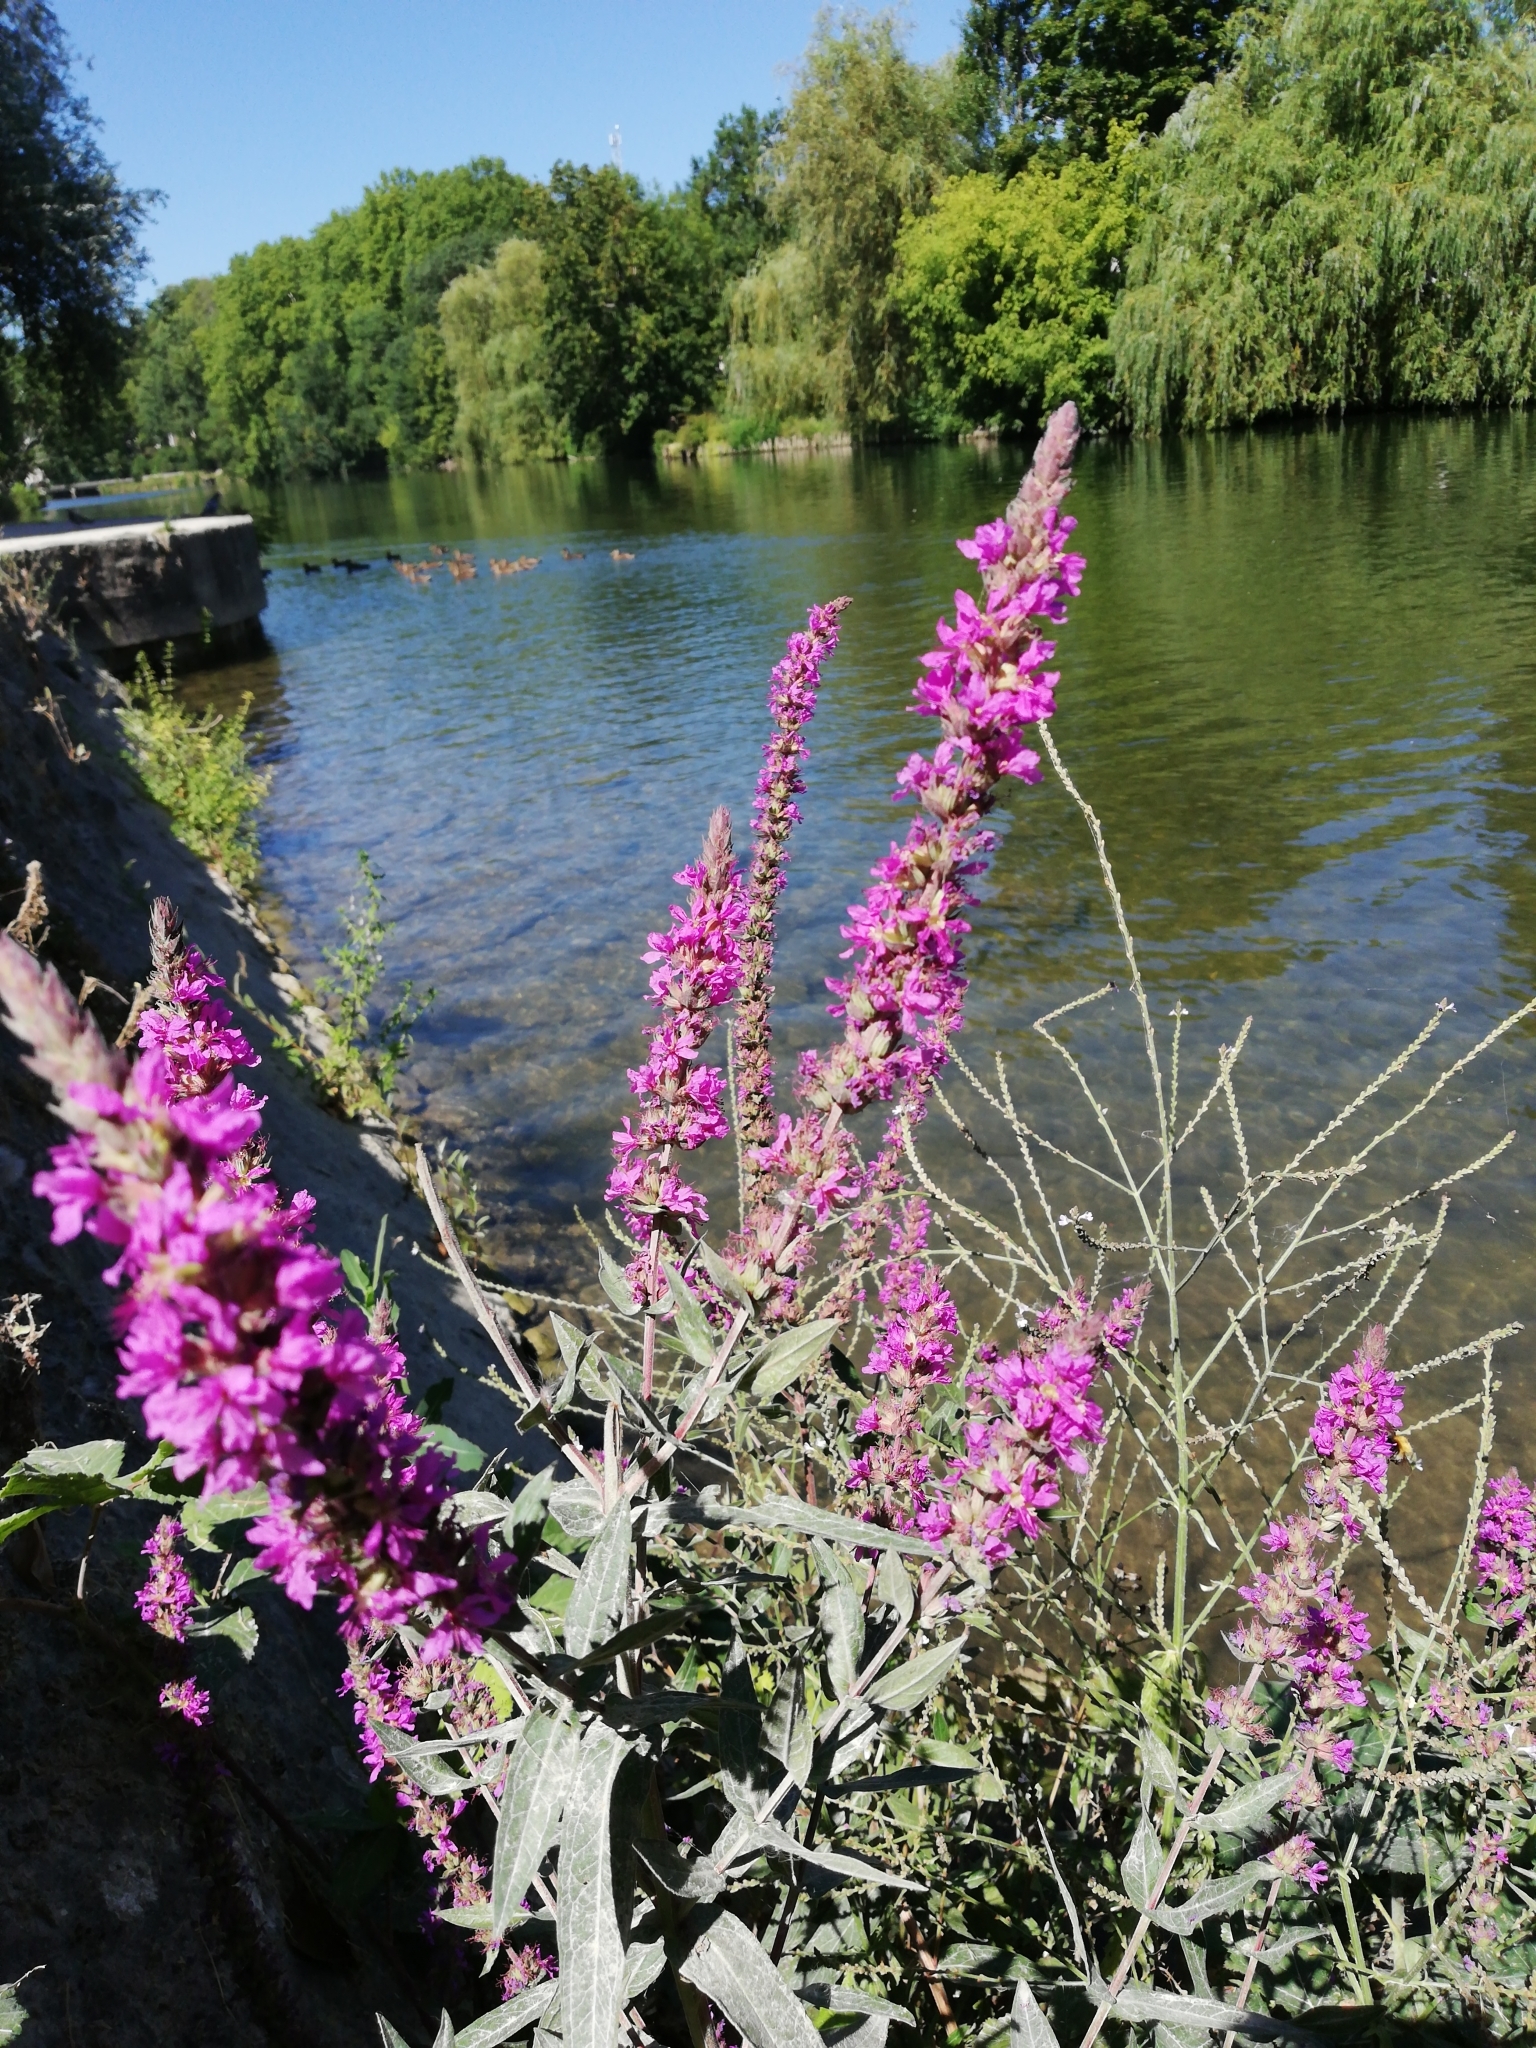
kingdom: Plantae
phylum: Tracheophyta
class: Magnoliopsida
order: Myrtales
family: Lythraceae
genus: Lythrum
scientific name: Lythrum salicaria
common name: Purple loosestrife
